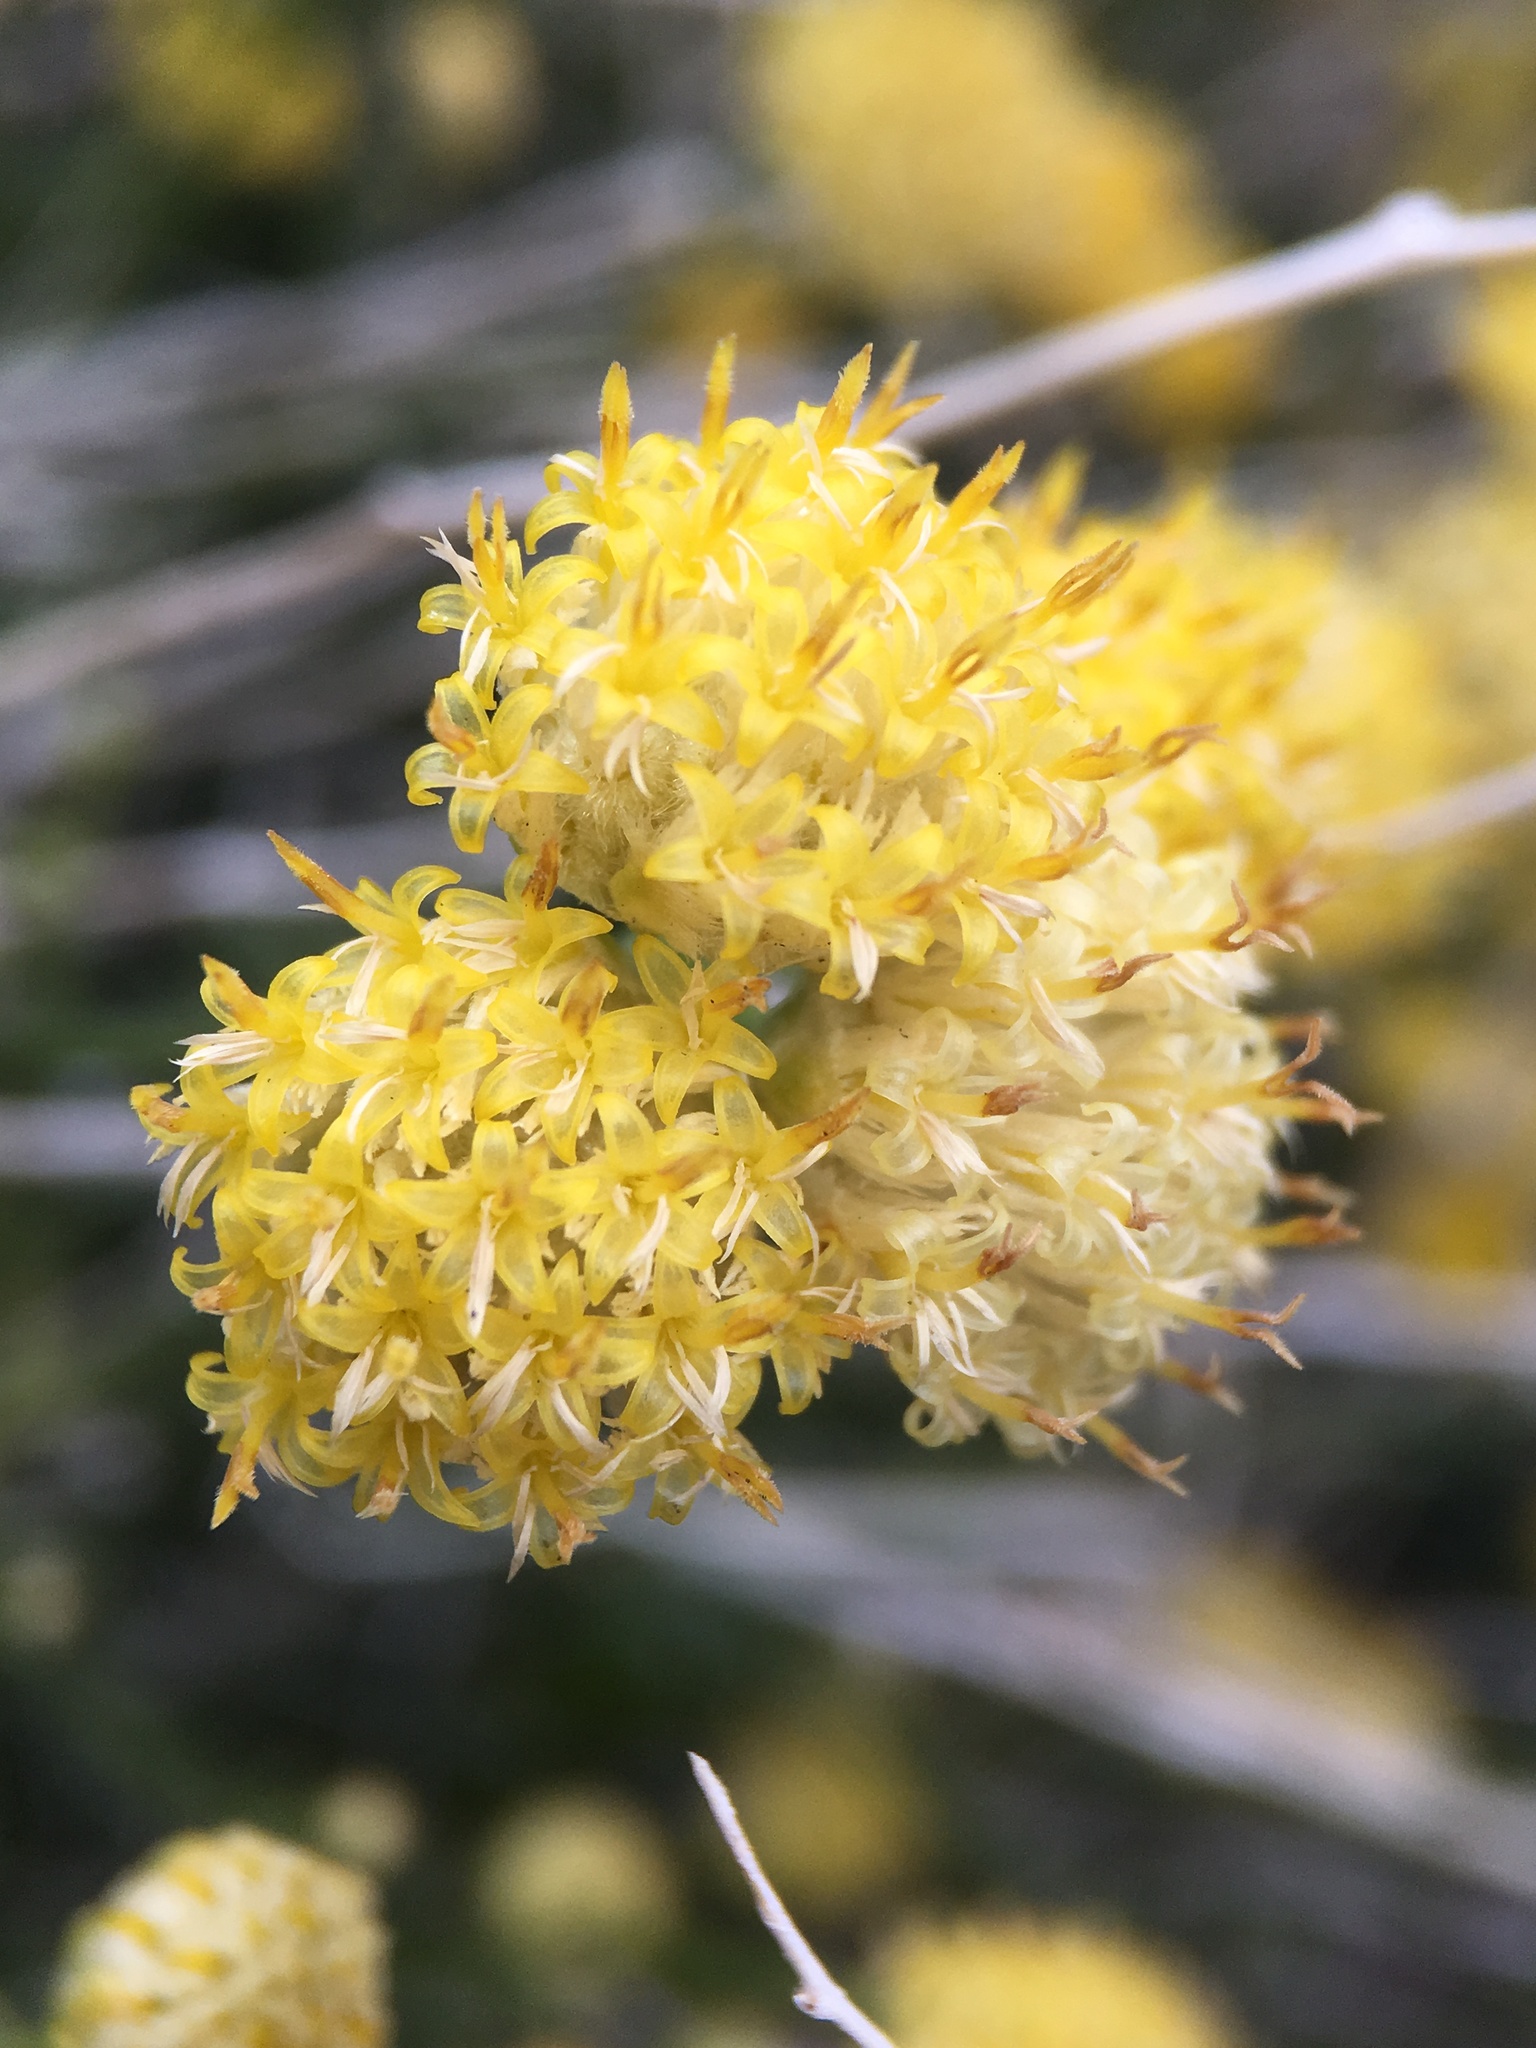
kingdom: Plantae
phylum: Tracheophyta
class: Magnoliopsida
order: Asterales
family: Asteraceae
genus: Acamptopappus
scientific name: Acamptopappus sphaerocephalus
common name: Goldenhead
